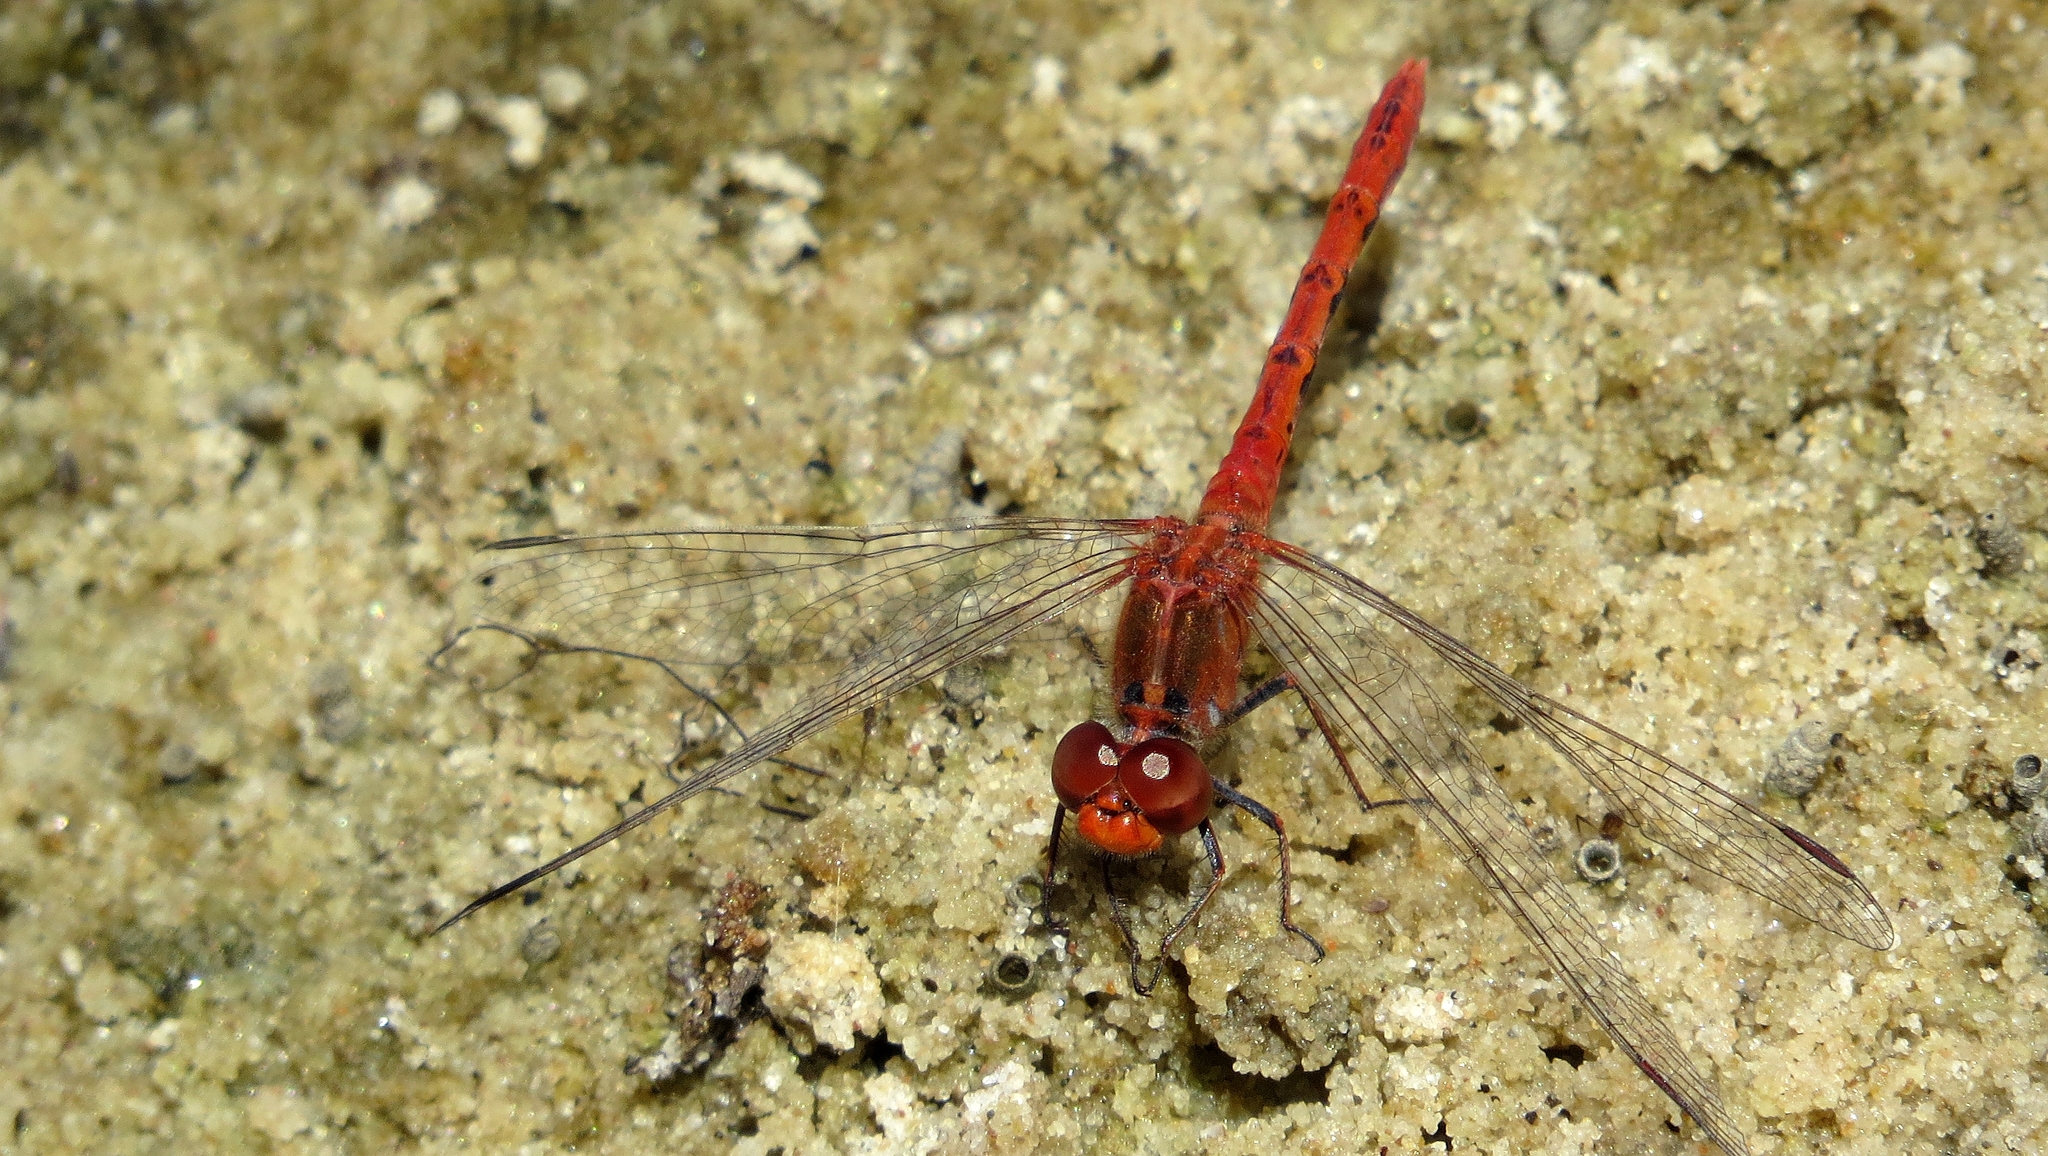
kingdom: Animalia
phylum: Arthropoda
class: Insecta
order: Odonata
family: Libellulidae
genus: Diplacodes
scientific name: Diplacodes bipunctata
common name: Red percher dragonfly
